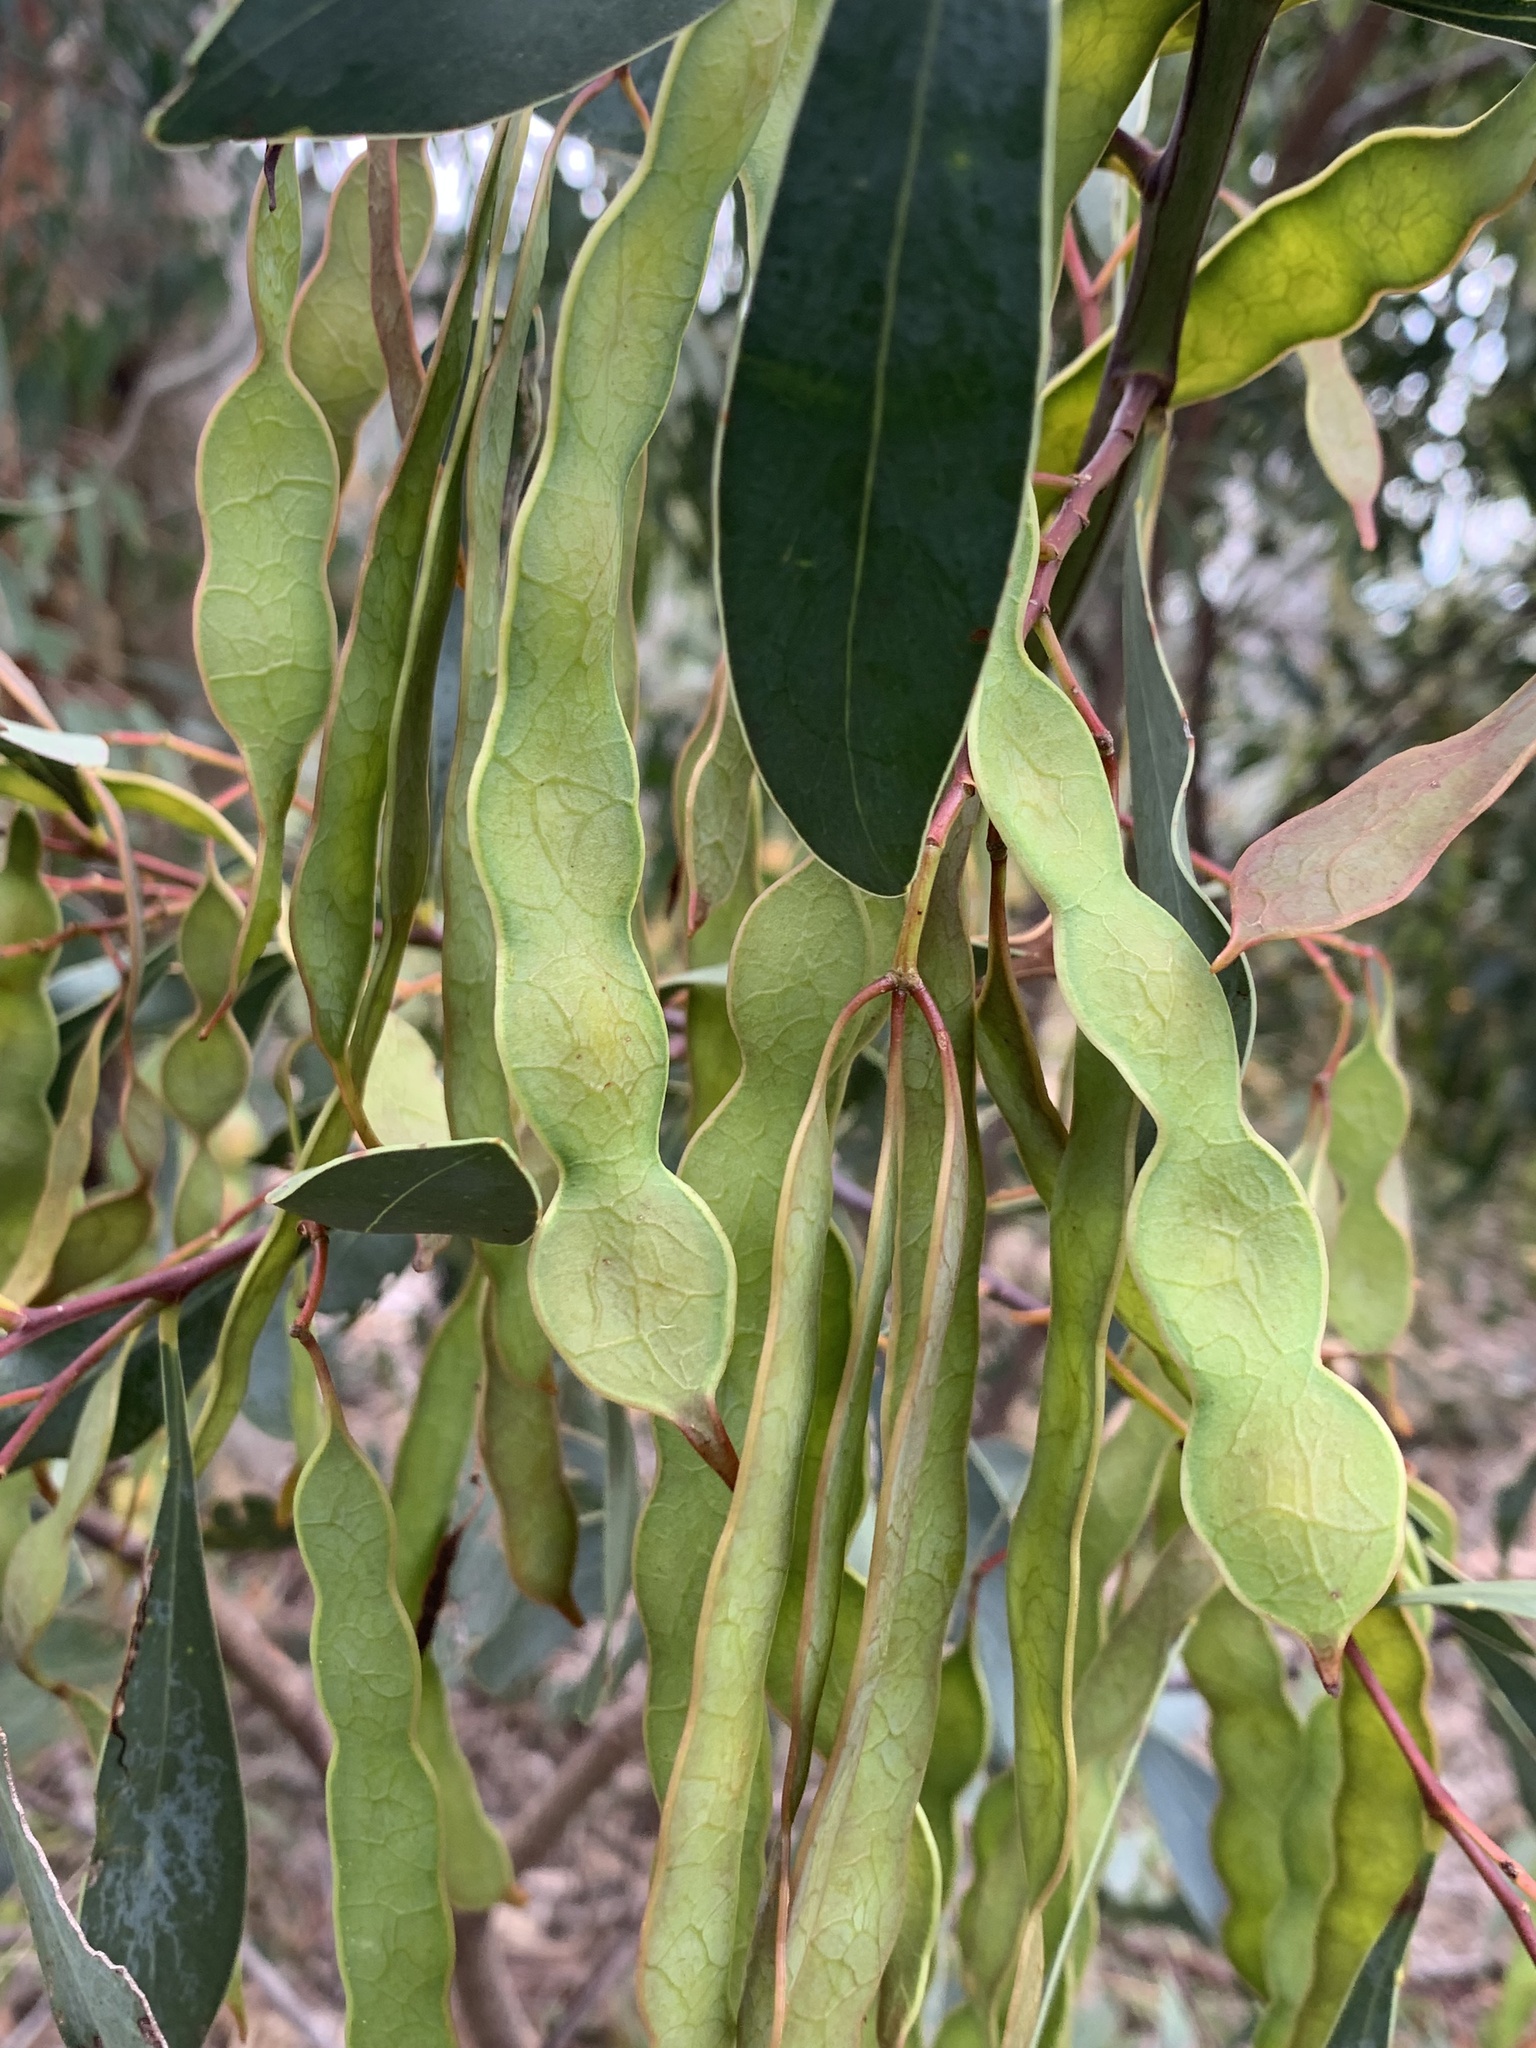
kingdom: Plantae
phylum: Tracheophyta
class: Magnoliopsida
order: Fabales
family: Fabaceae
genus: Acacia
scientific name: Acacia penninervis
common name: Hickory wattle
